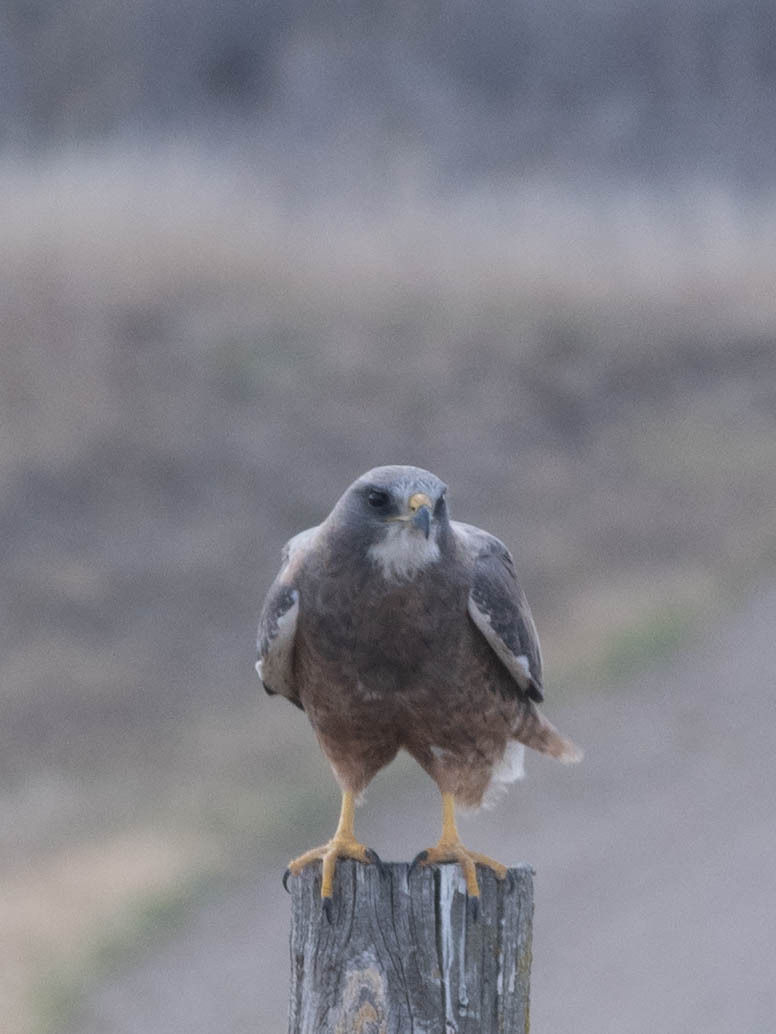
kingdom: Animalia
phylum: Chordata
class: Aves
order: Accipitriformes
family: Accipitridae
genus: Buteo
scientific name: Buteo swainsoni
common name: Swainson's hawk
